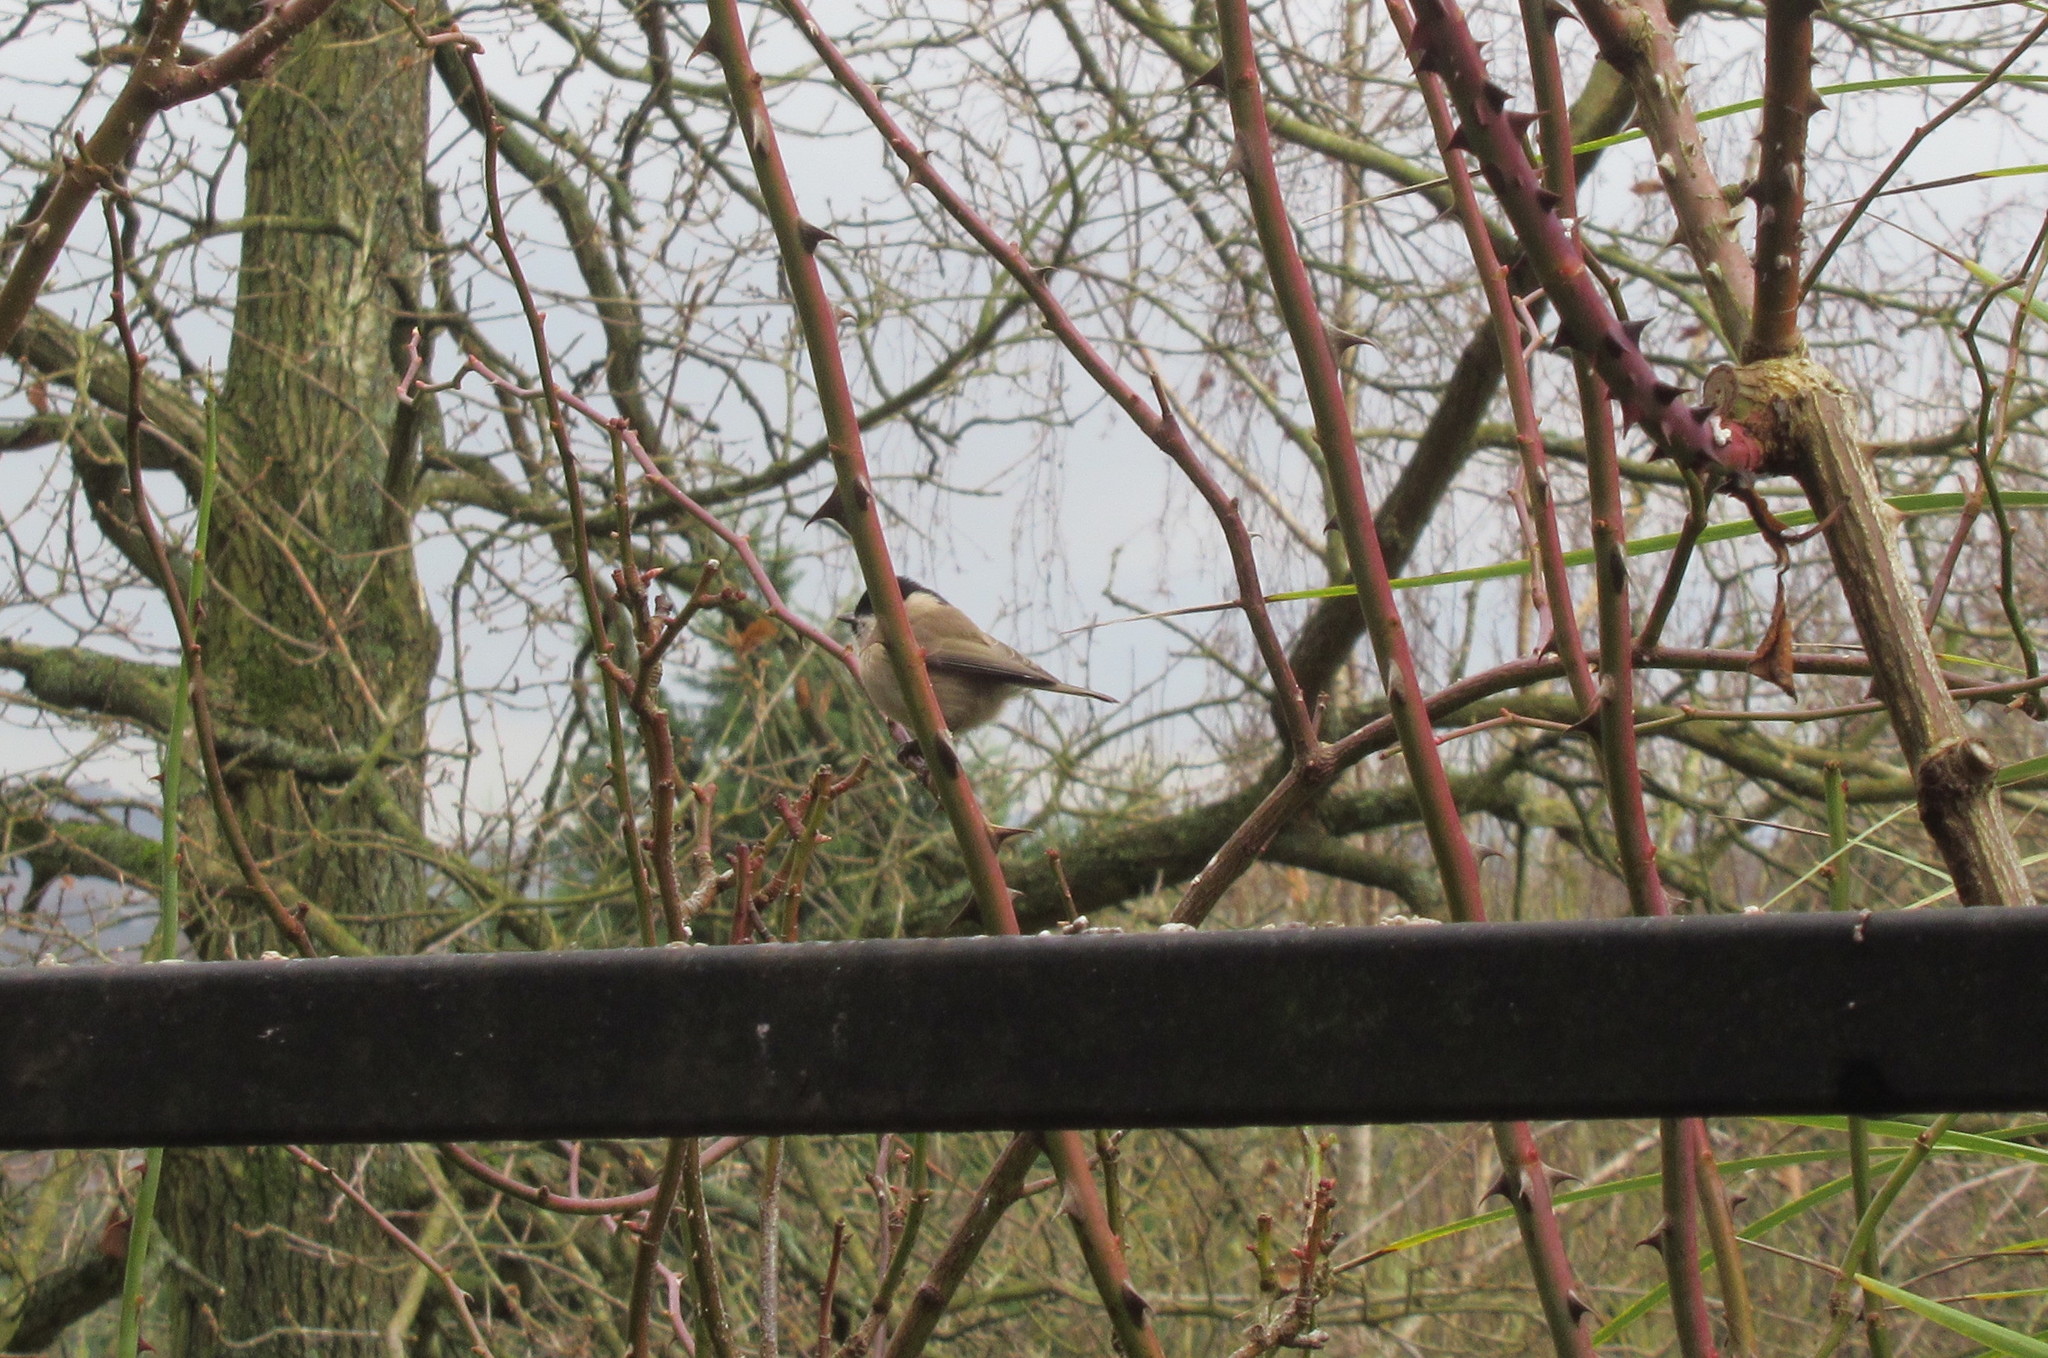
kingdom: Animalia
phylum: Chordata
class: Aves
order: Passeriformes
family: Paridae
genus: Poecile
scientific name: Poecile palustris
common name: Marsh tit
